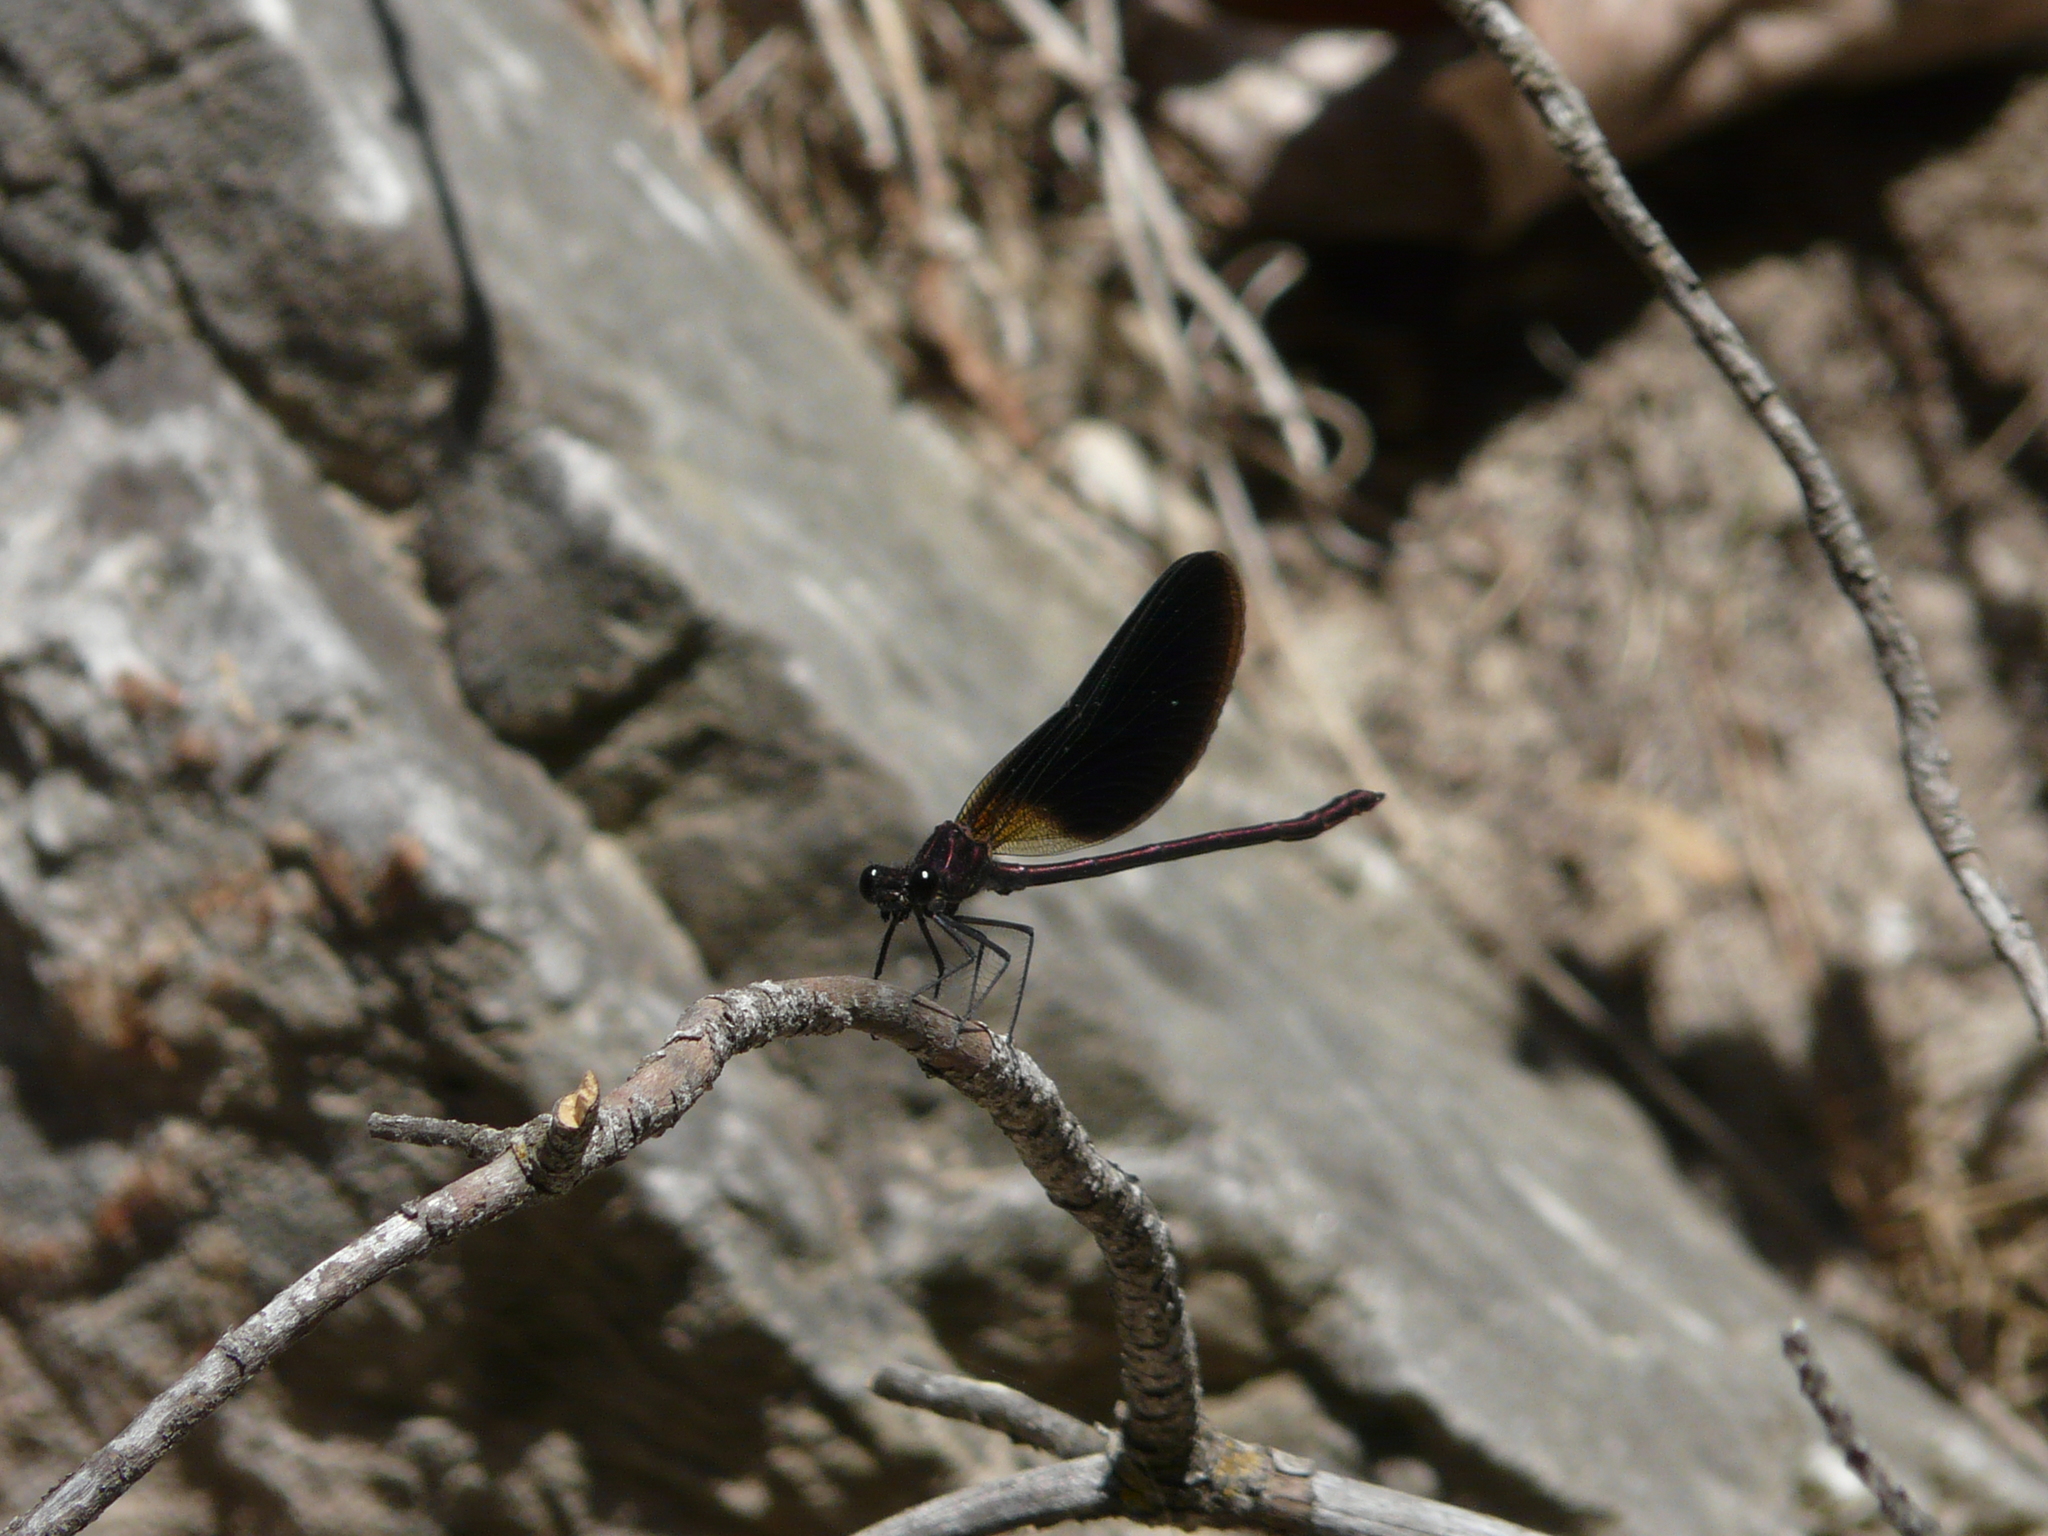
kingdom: Animalia
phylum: Arthropoda
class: Insecta
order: Odonata
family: Calopterygidae
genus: Calopteryx
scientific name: Calopteryx haemorrhoidalis
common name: Copper demoiselle
